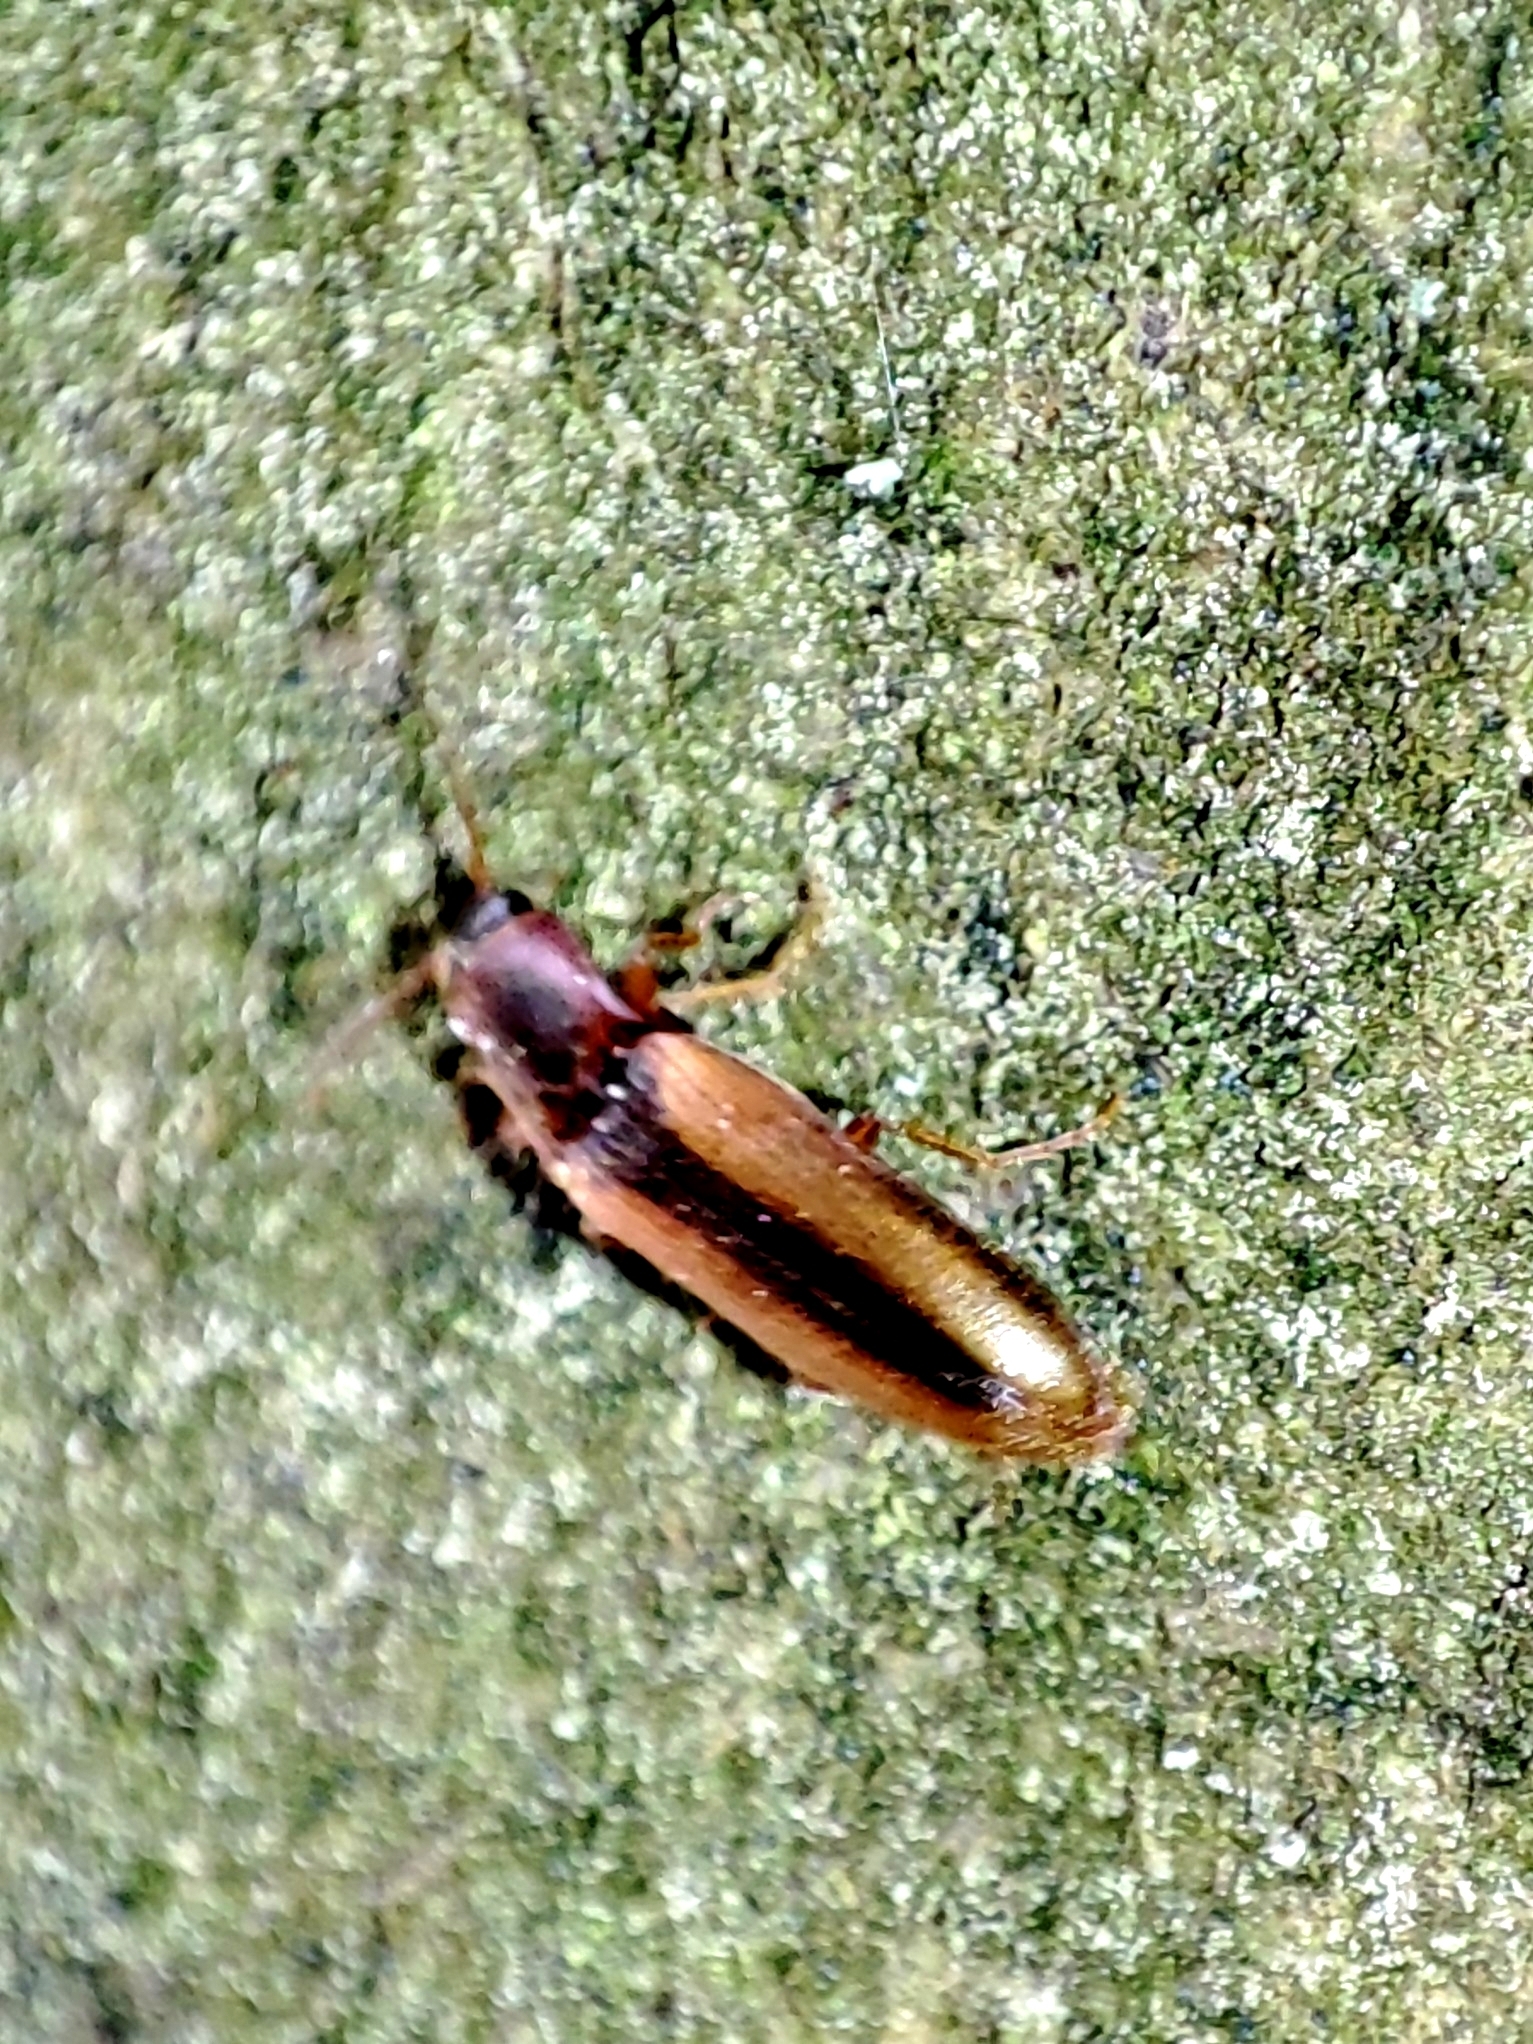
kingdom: Animalia
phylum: Arthropoda
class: Insecta
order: Coleoptera
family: Elateridae
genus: Dalopius
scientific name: Dalopius marginatus
